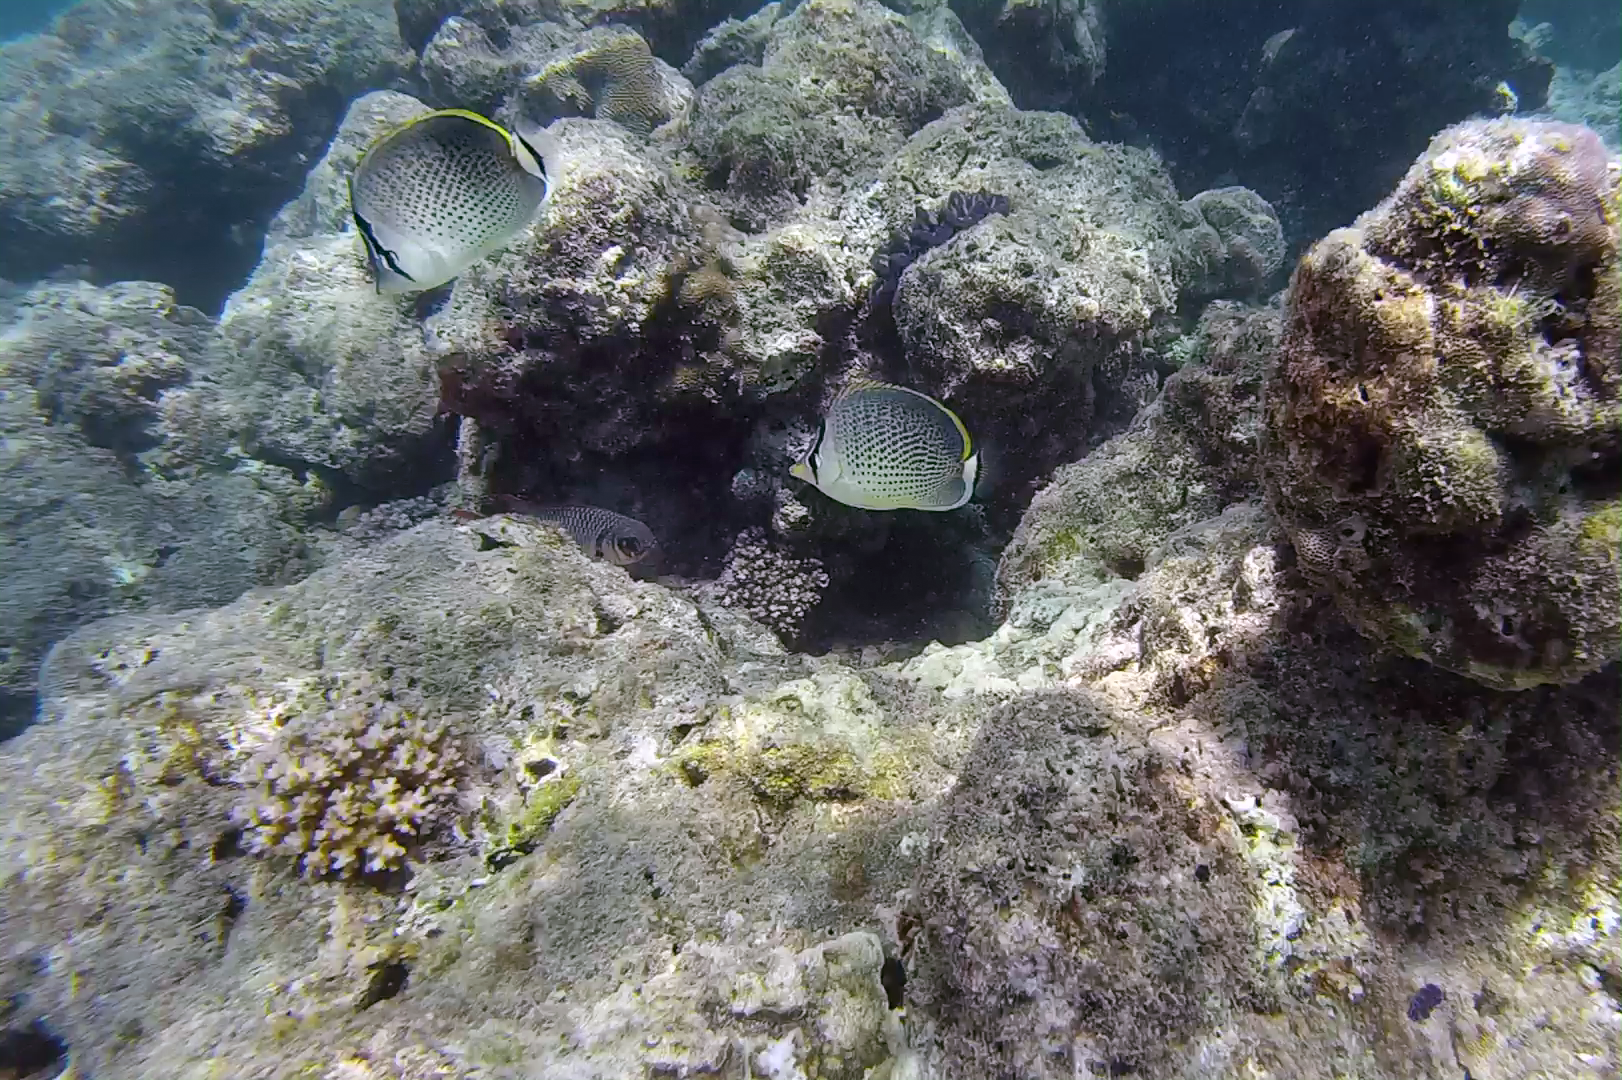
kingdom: Animalia
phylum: Chordata
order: Perciformes
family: Chaetodontidae
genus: Chaetodon
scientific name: Chaetodon guttatissimus
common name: Spotted butterflyfish
